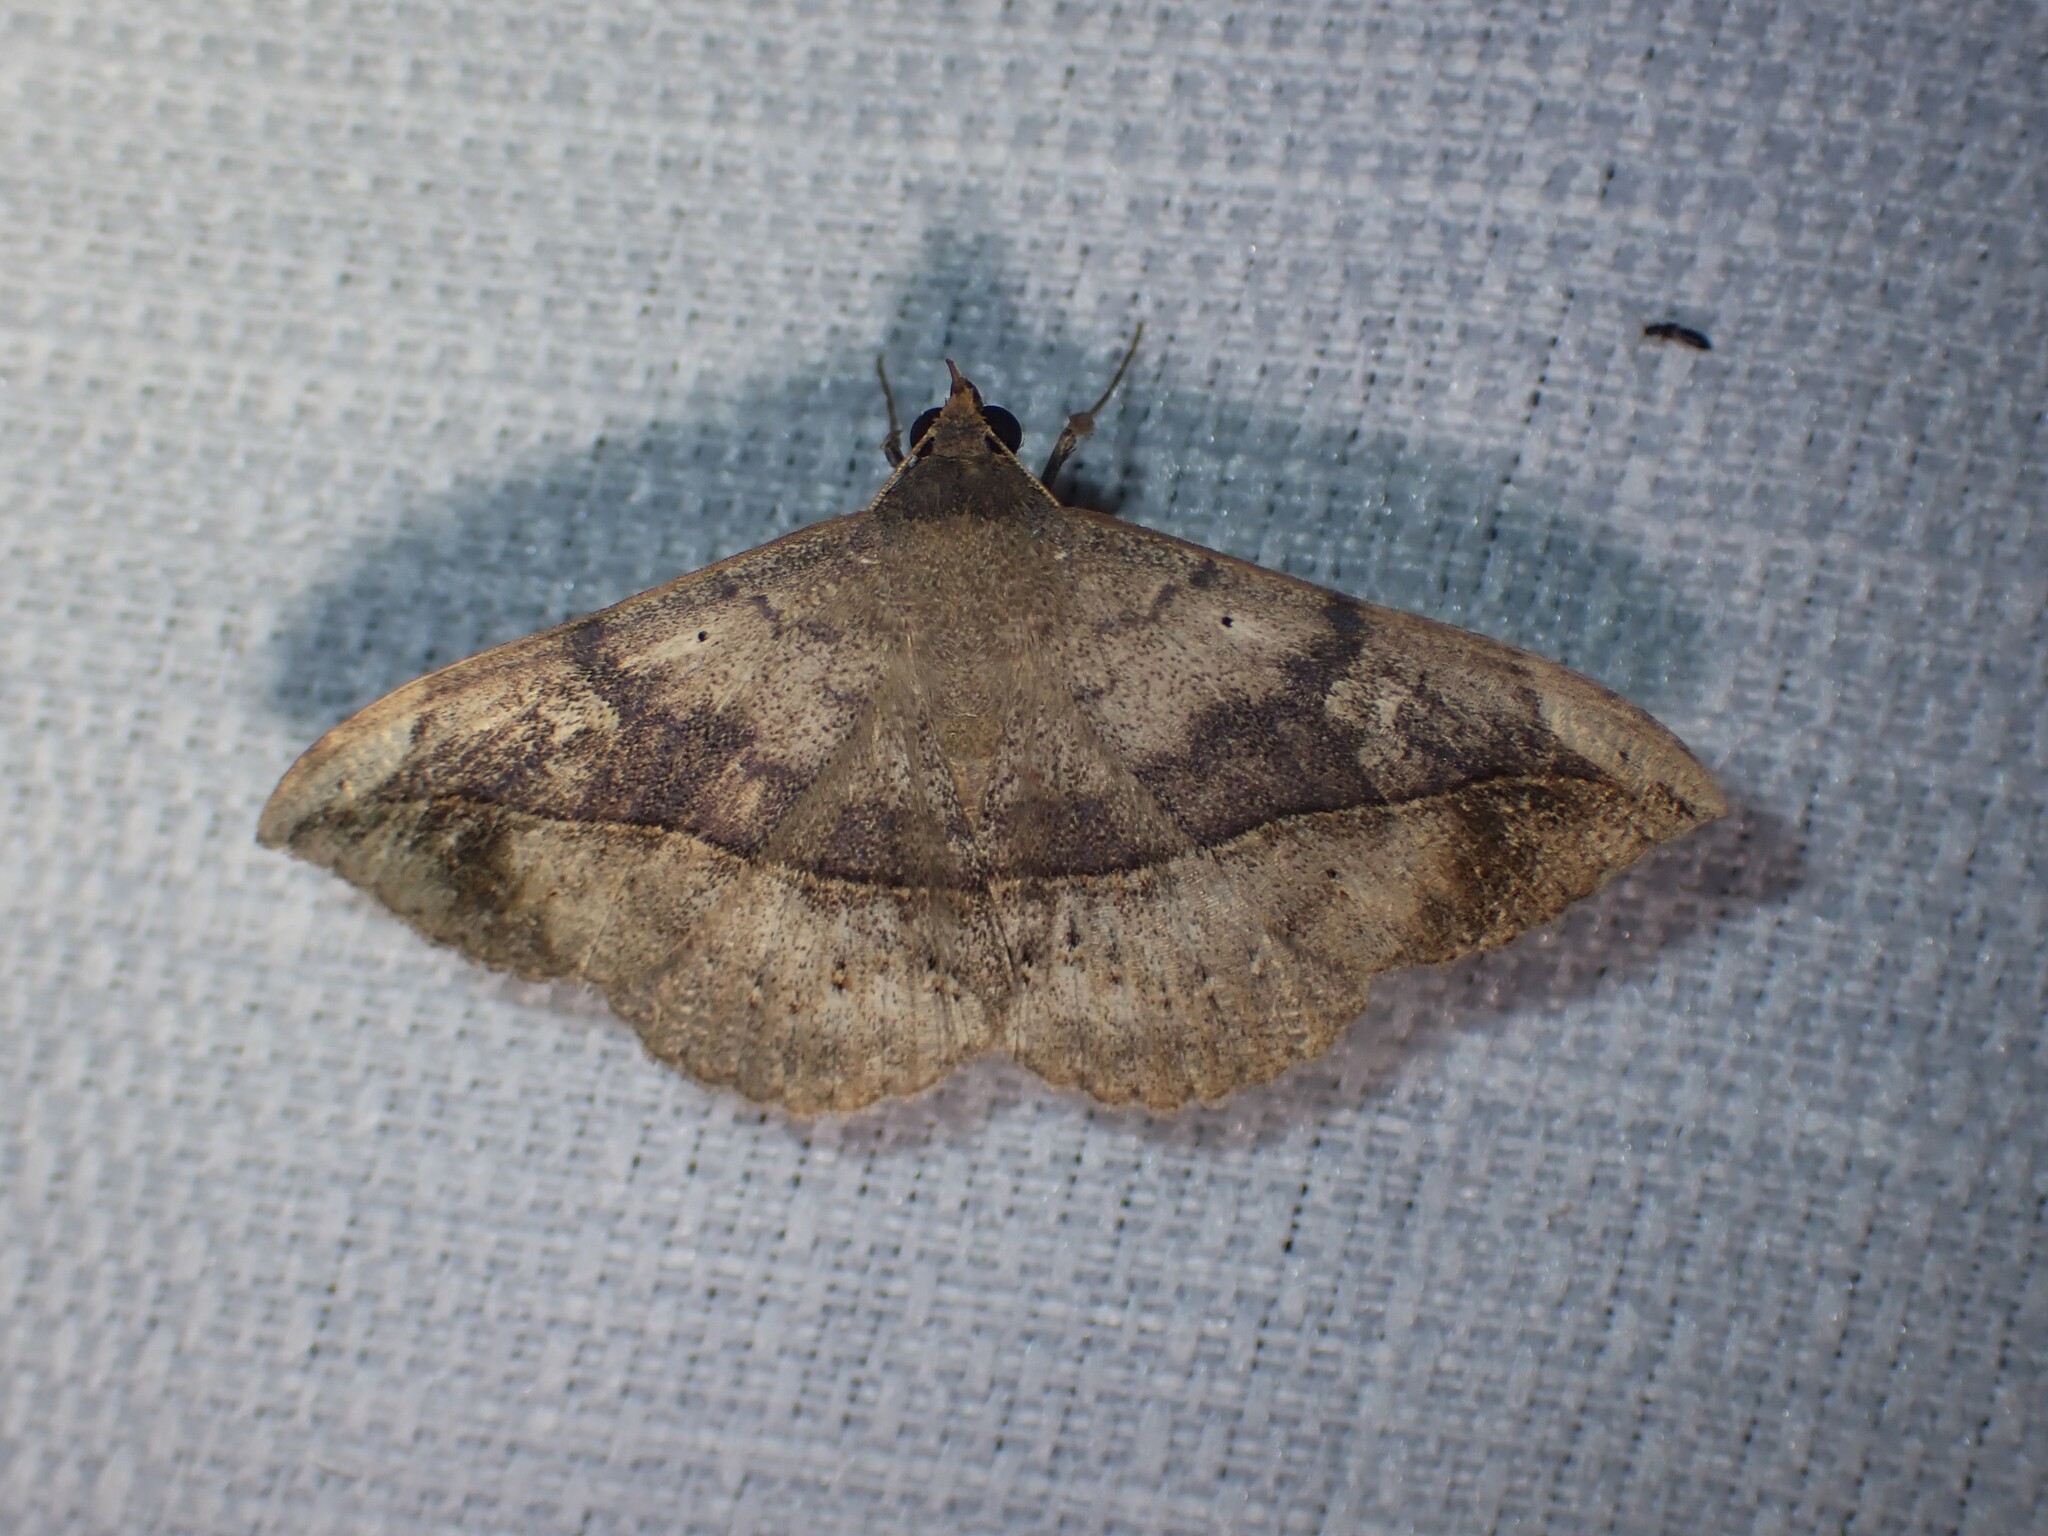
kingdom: Animalia
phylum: Arthropoda
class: Insecta
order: Lepidoptera
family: Erebidae
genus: Anticarsia
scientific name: Anticarsia gemmatalis
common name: Cutworm moth
